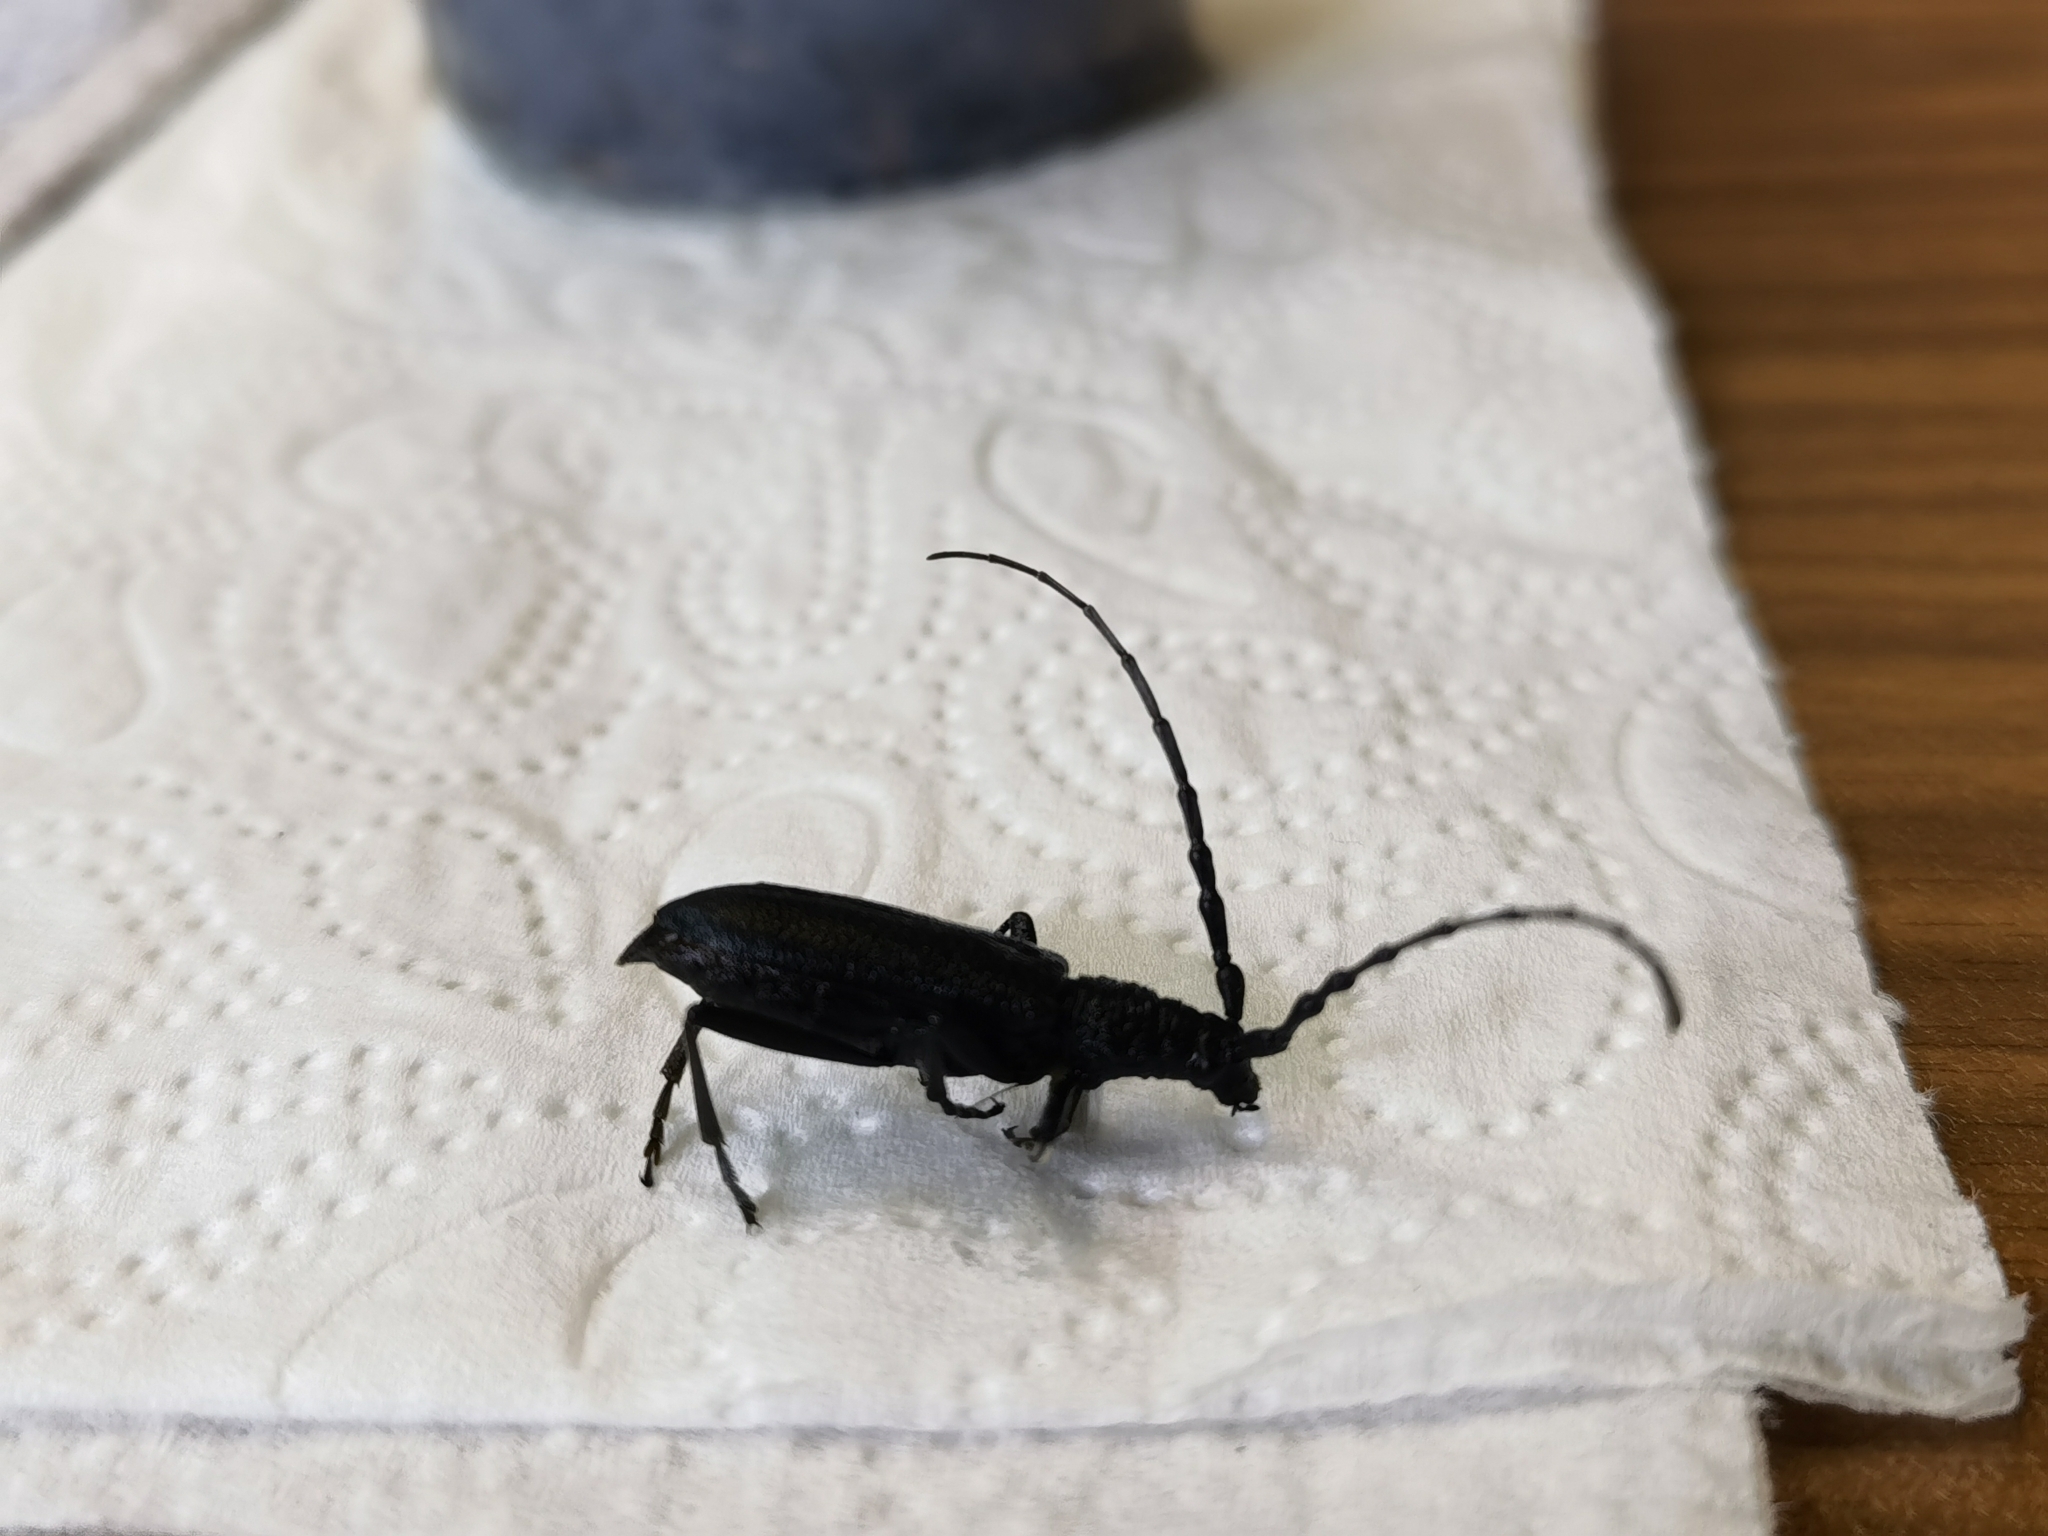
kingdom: Animalia
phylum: Arthropoda
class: Insecta
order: Coleoptera
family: Cerambycidae
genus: Cerambyx
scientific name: Cerambyx scopolii
